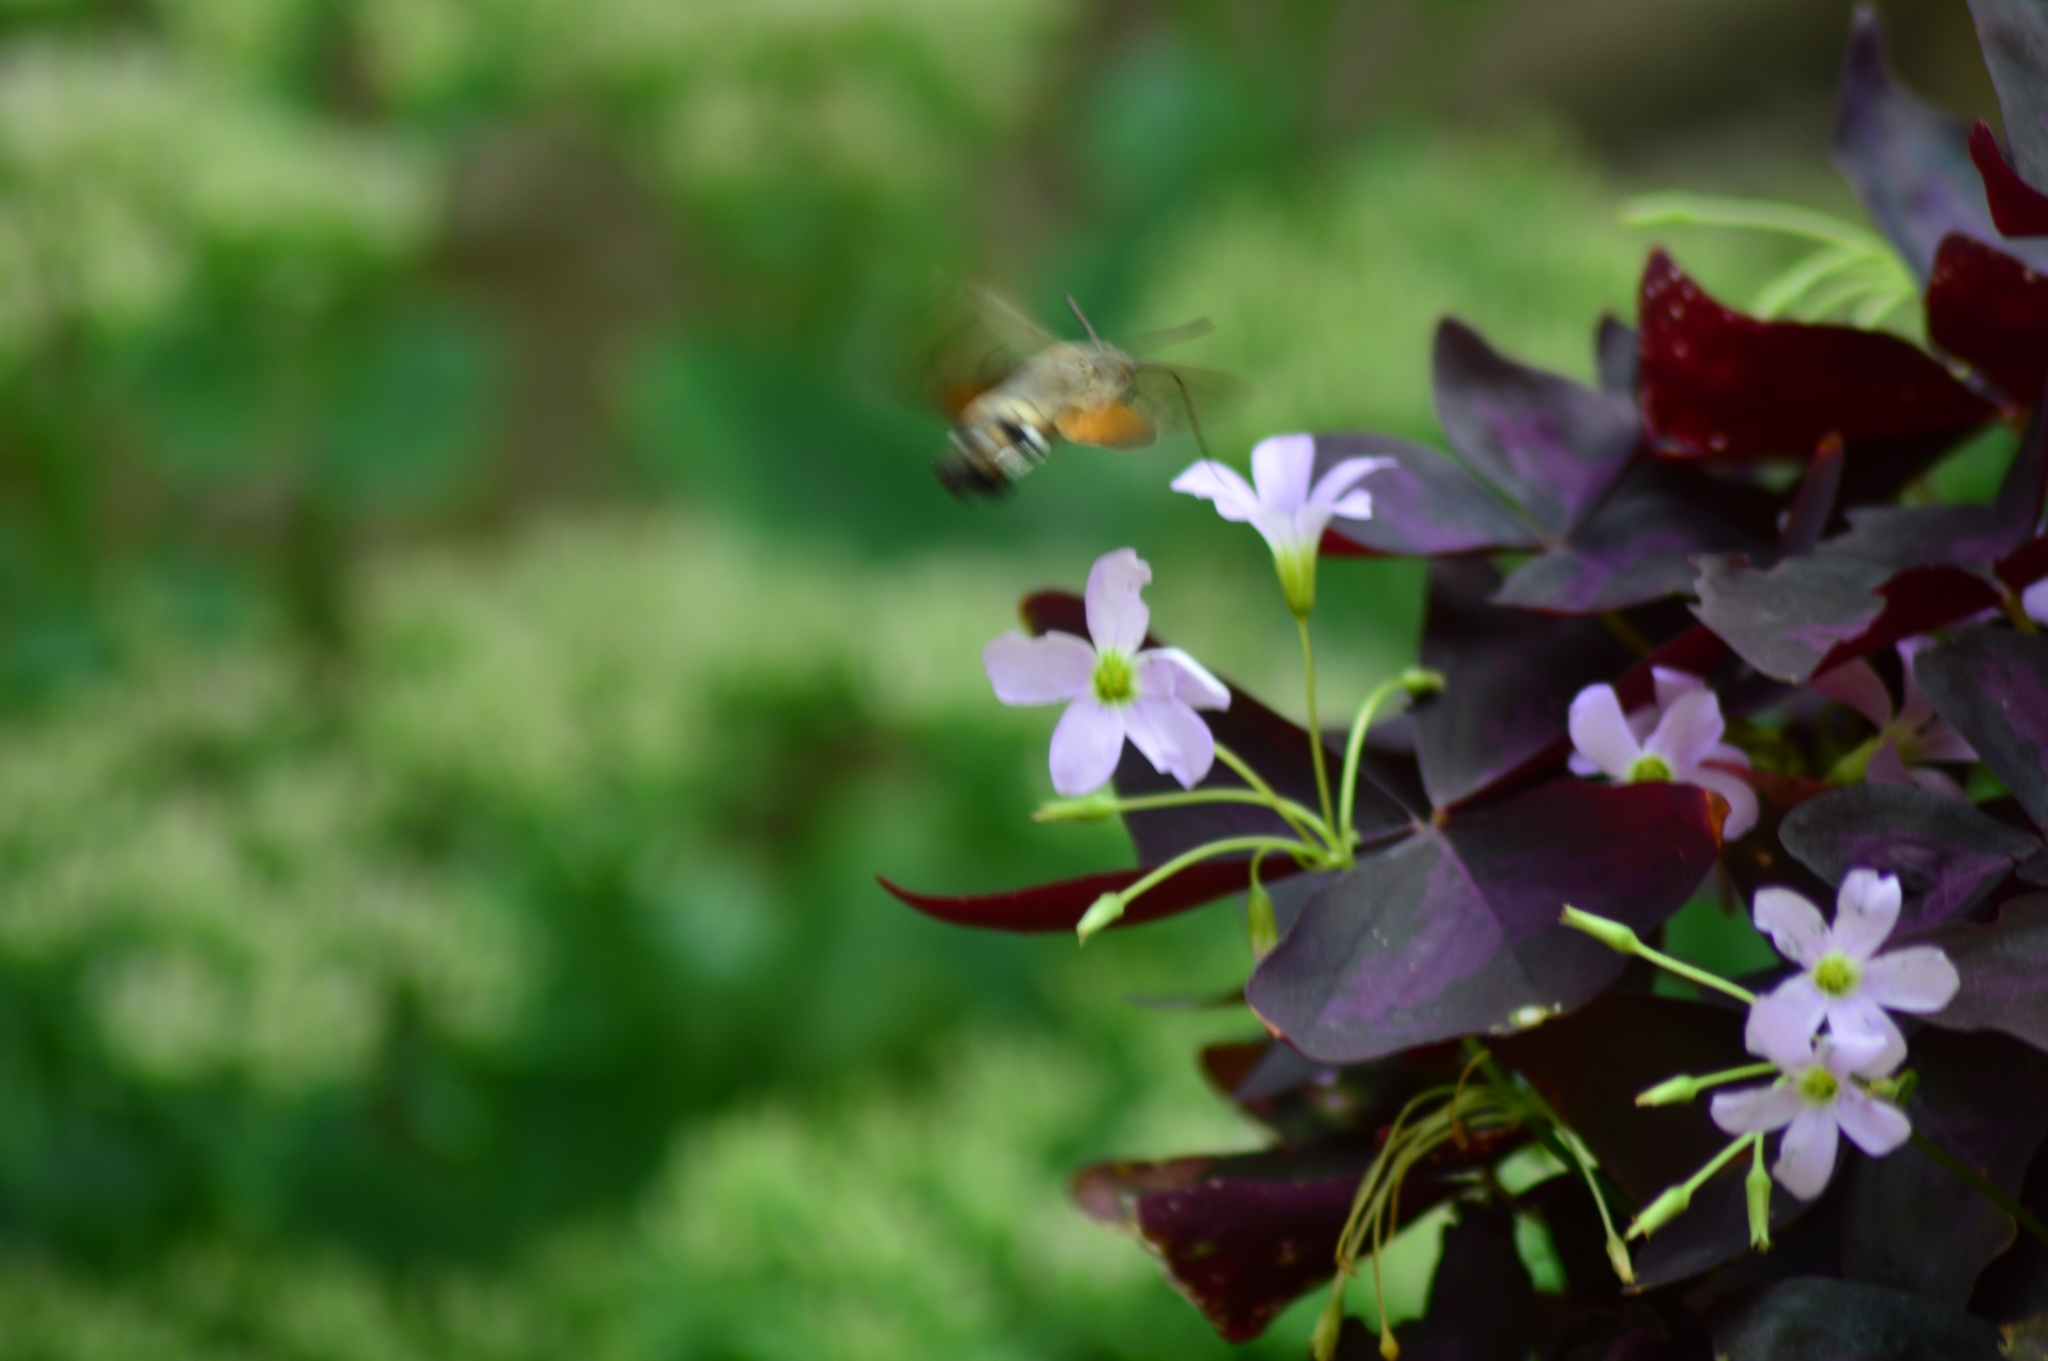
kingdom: Animalia
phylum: Arthropoda
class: Insecta
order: Lepidoptera
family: Sphingidae
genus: Macroglossum
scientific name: Macroglossum stellatarum
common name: Humming-bird hawk-moth
